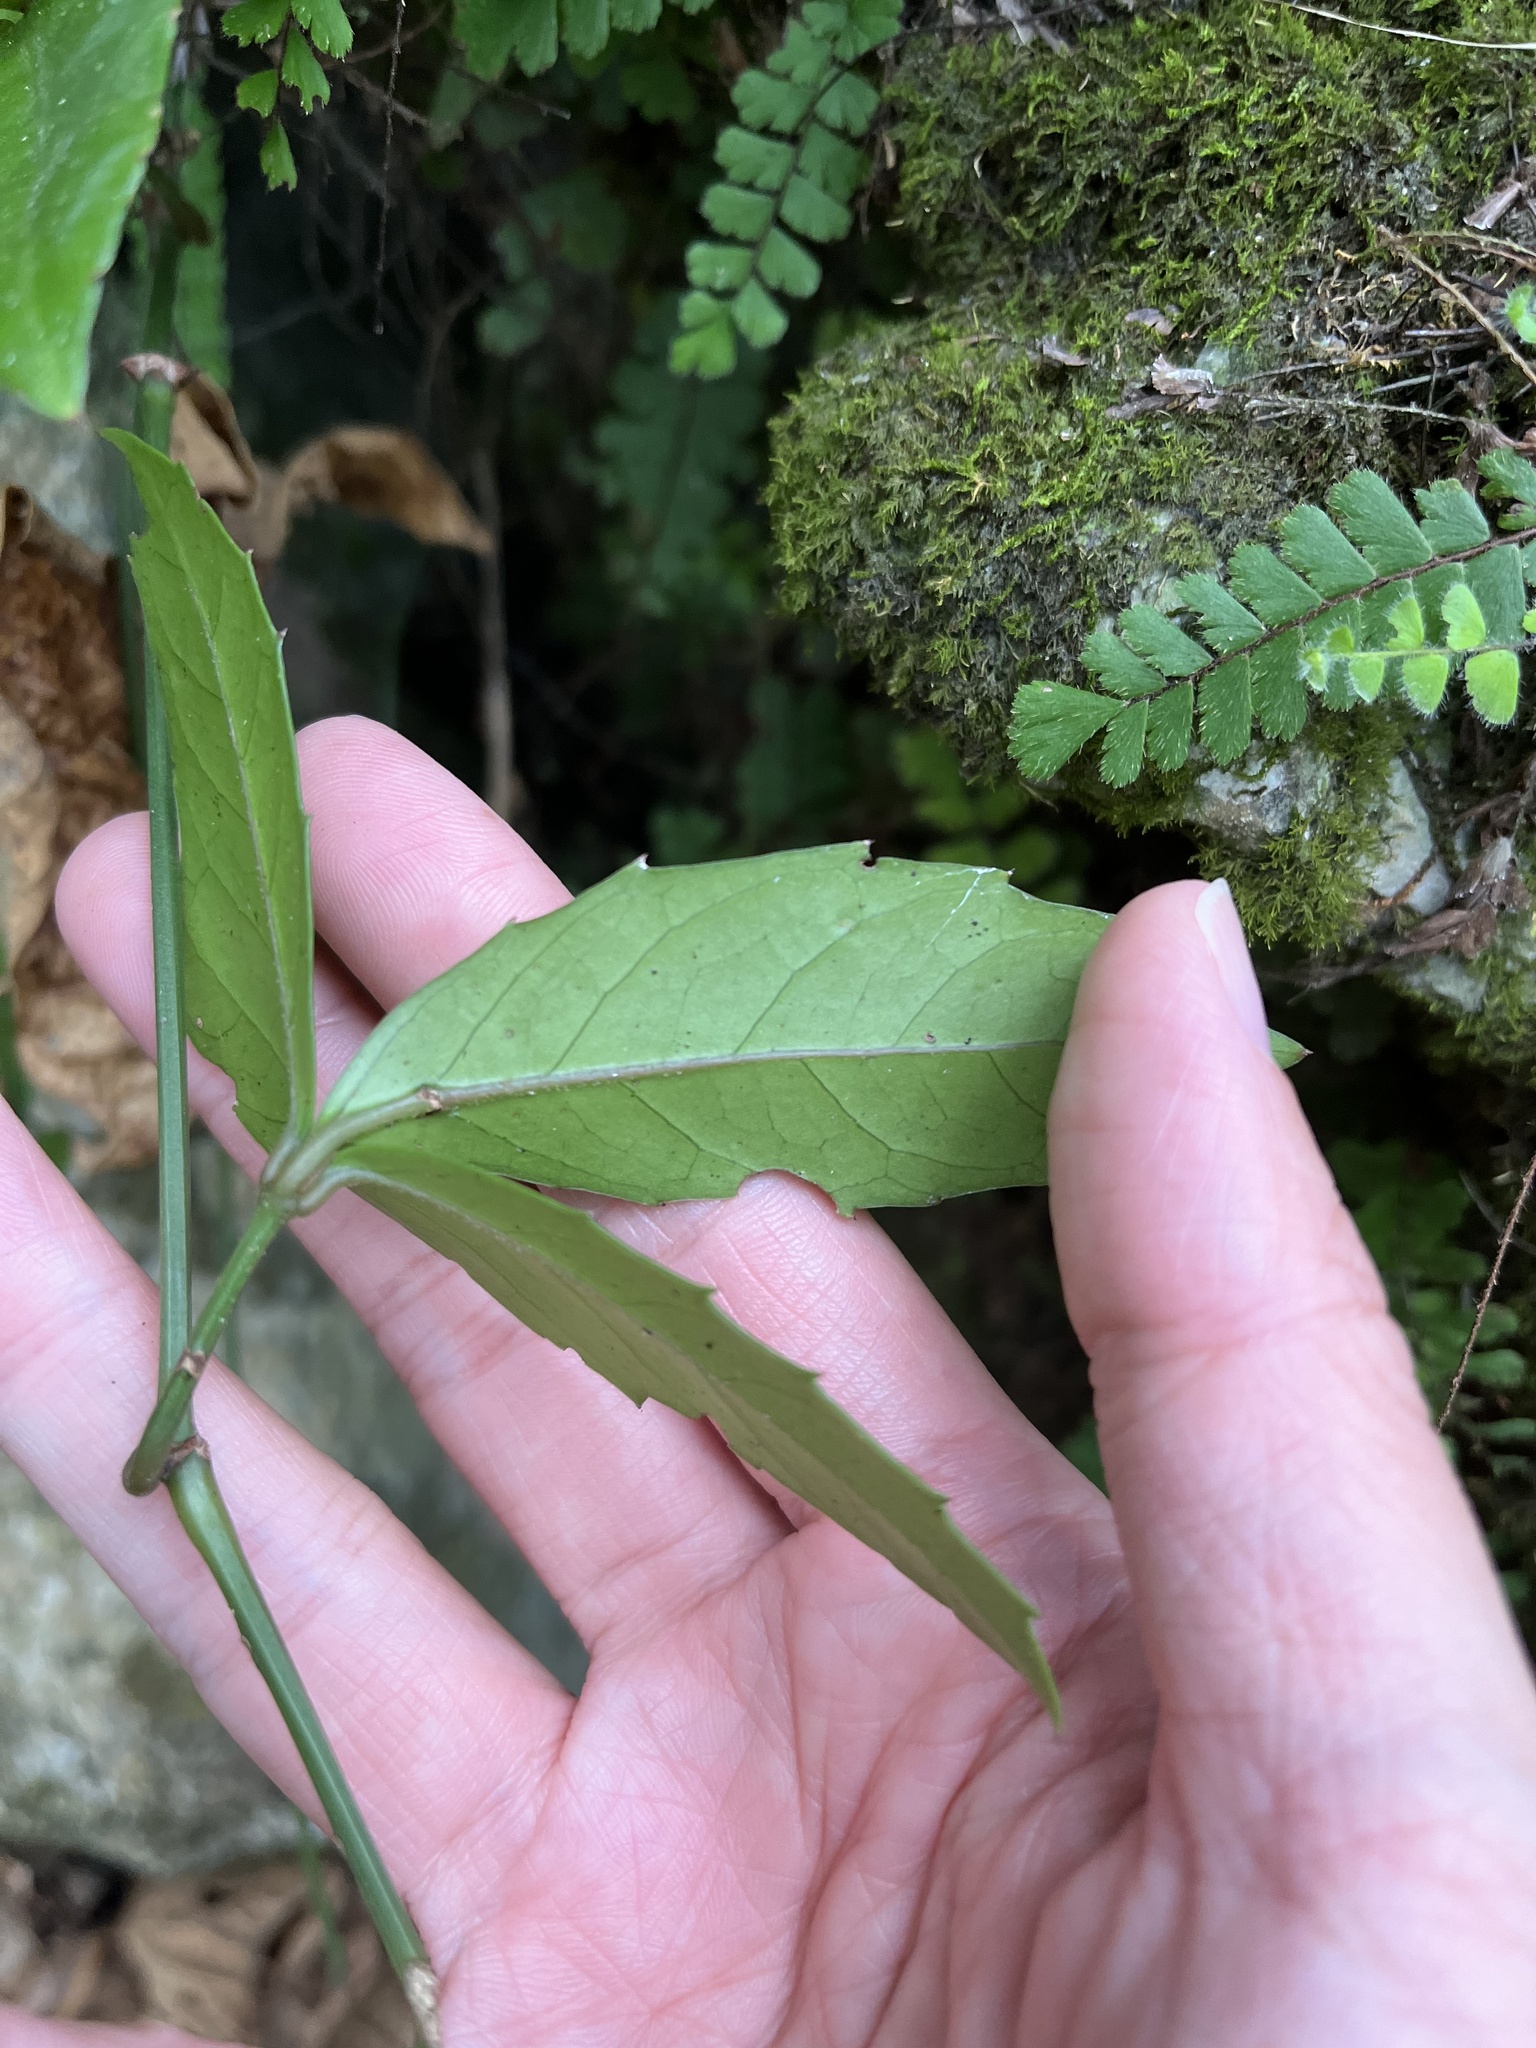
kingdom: Plantae
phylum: Tracheophyta
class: Magnoliopsida
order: Vitales
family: Vitaceae
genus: Tetrastigma
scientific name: Tetrastigma formosanum
